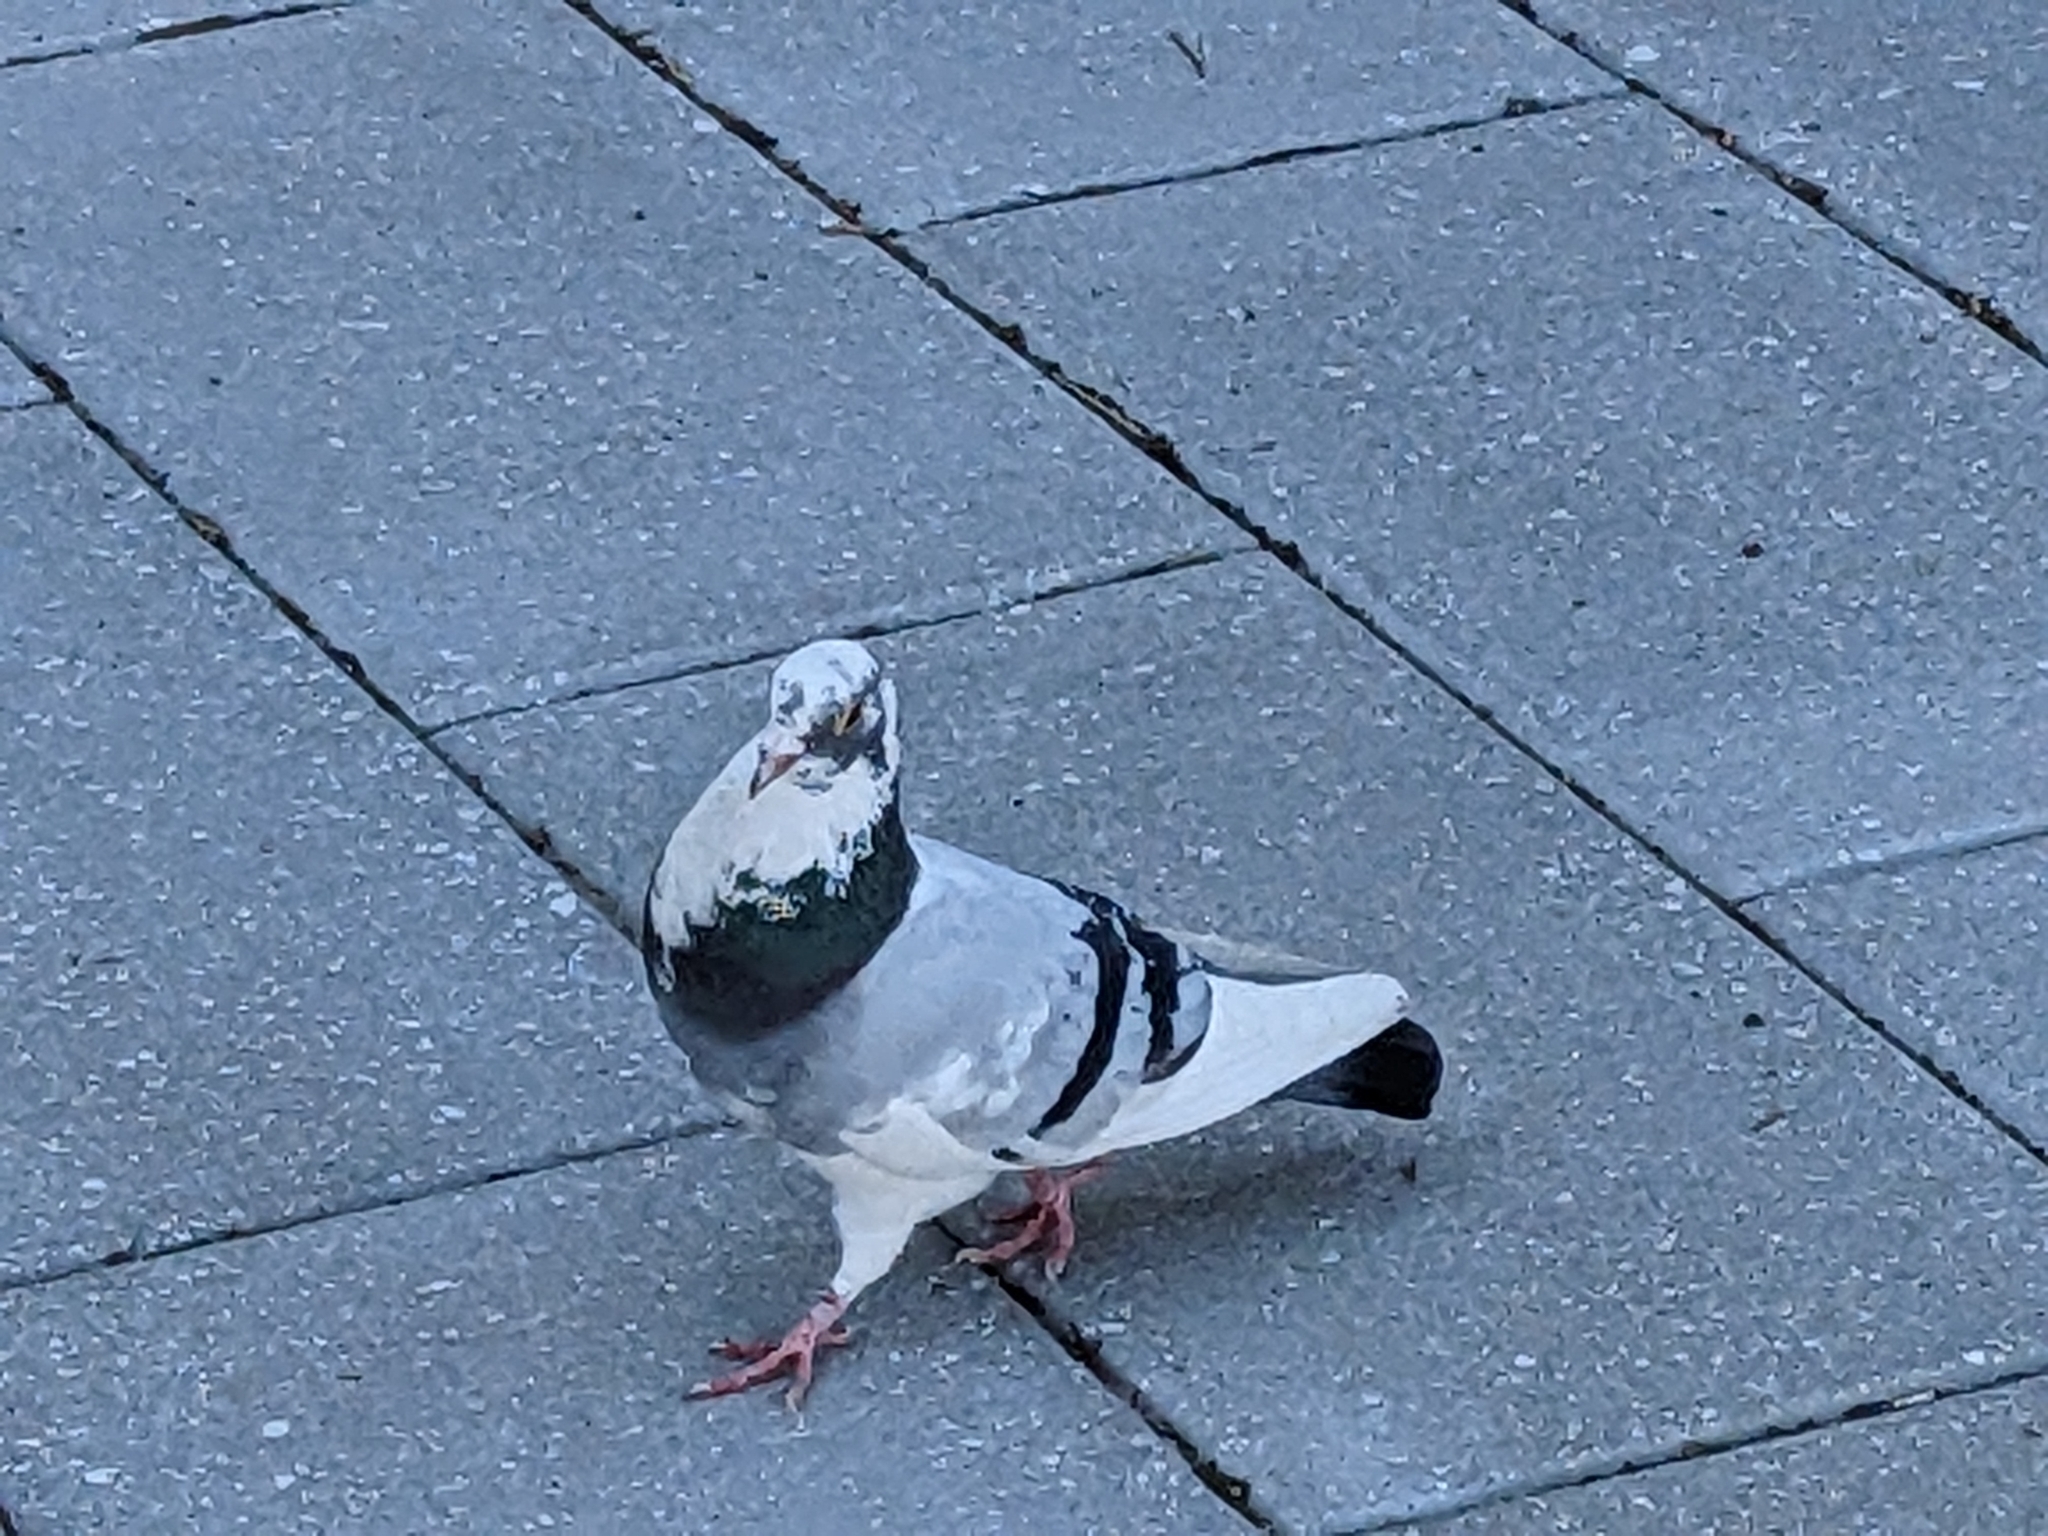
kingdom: Animalia
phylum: Chordata
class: Aves
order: Columbiformes
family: Columbidae
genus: Columba
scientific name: Columba livia
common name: Rock pigeon
